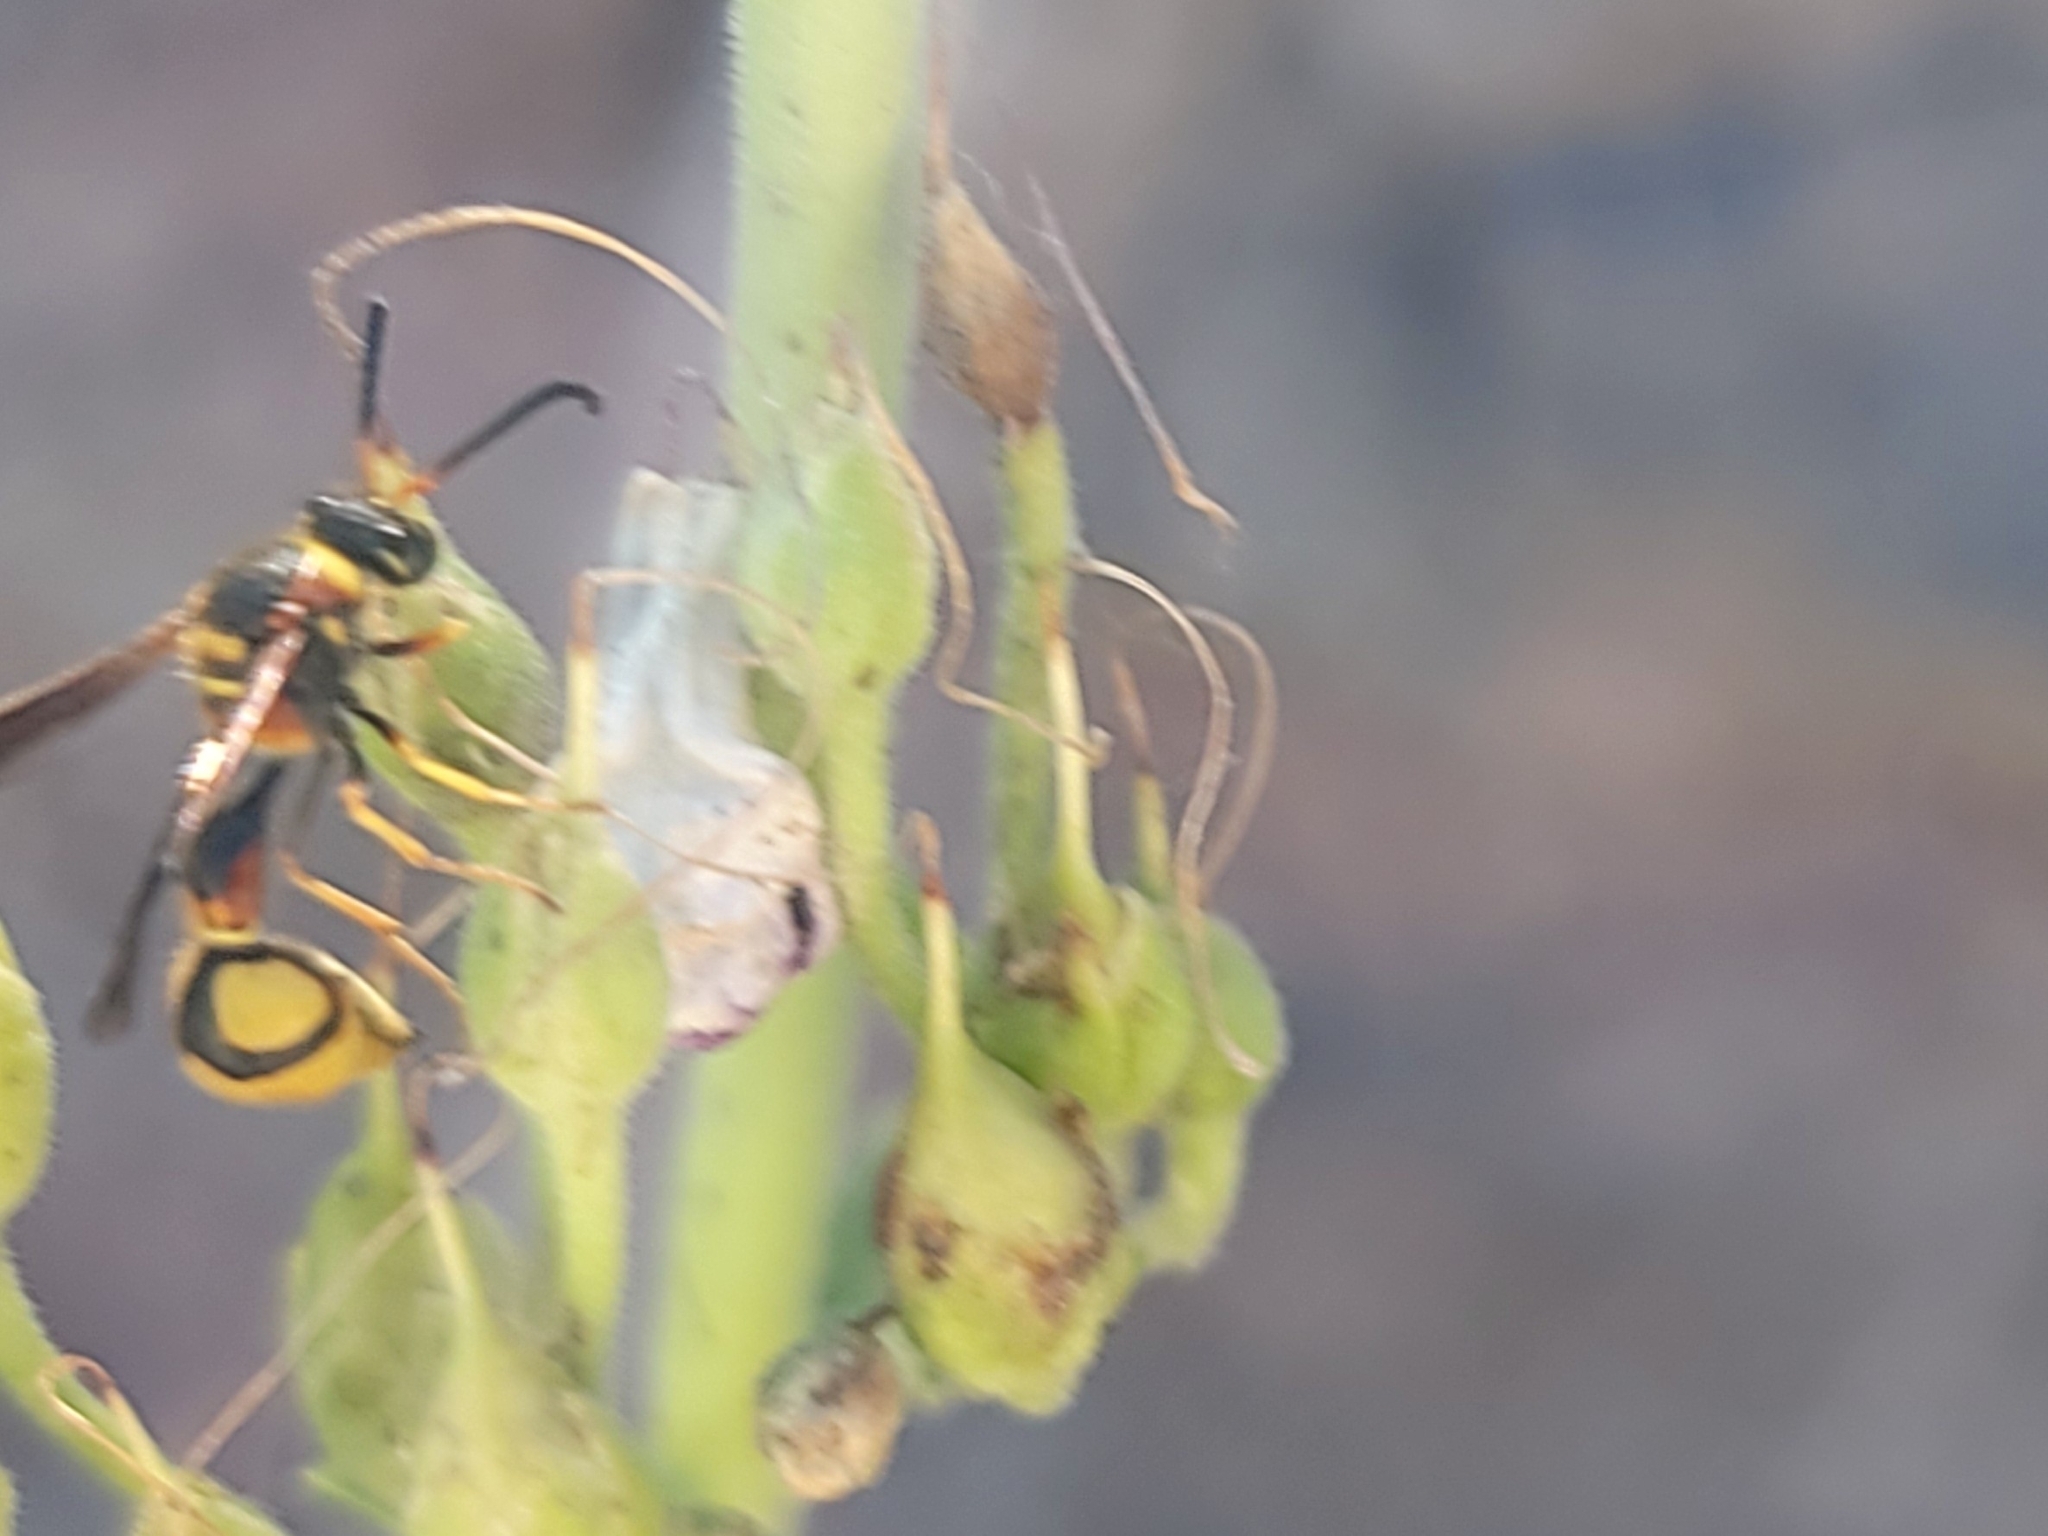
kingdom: Animalia
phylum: Arthropoda
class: Insecta
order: Hymenoptera
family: Vespidae
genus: Eumenes
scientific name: Eumenes bollii
